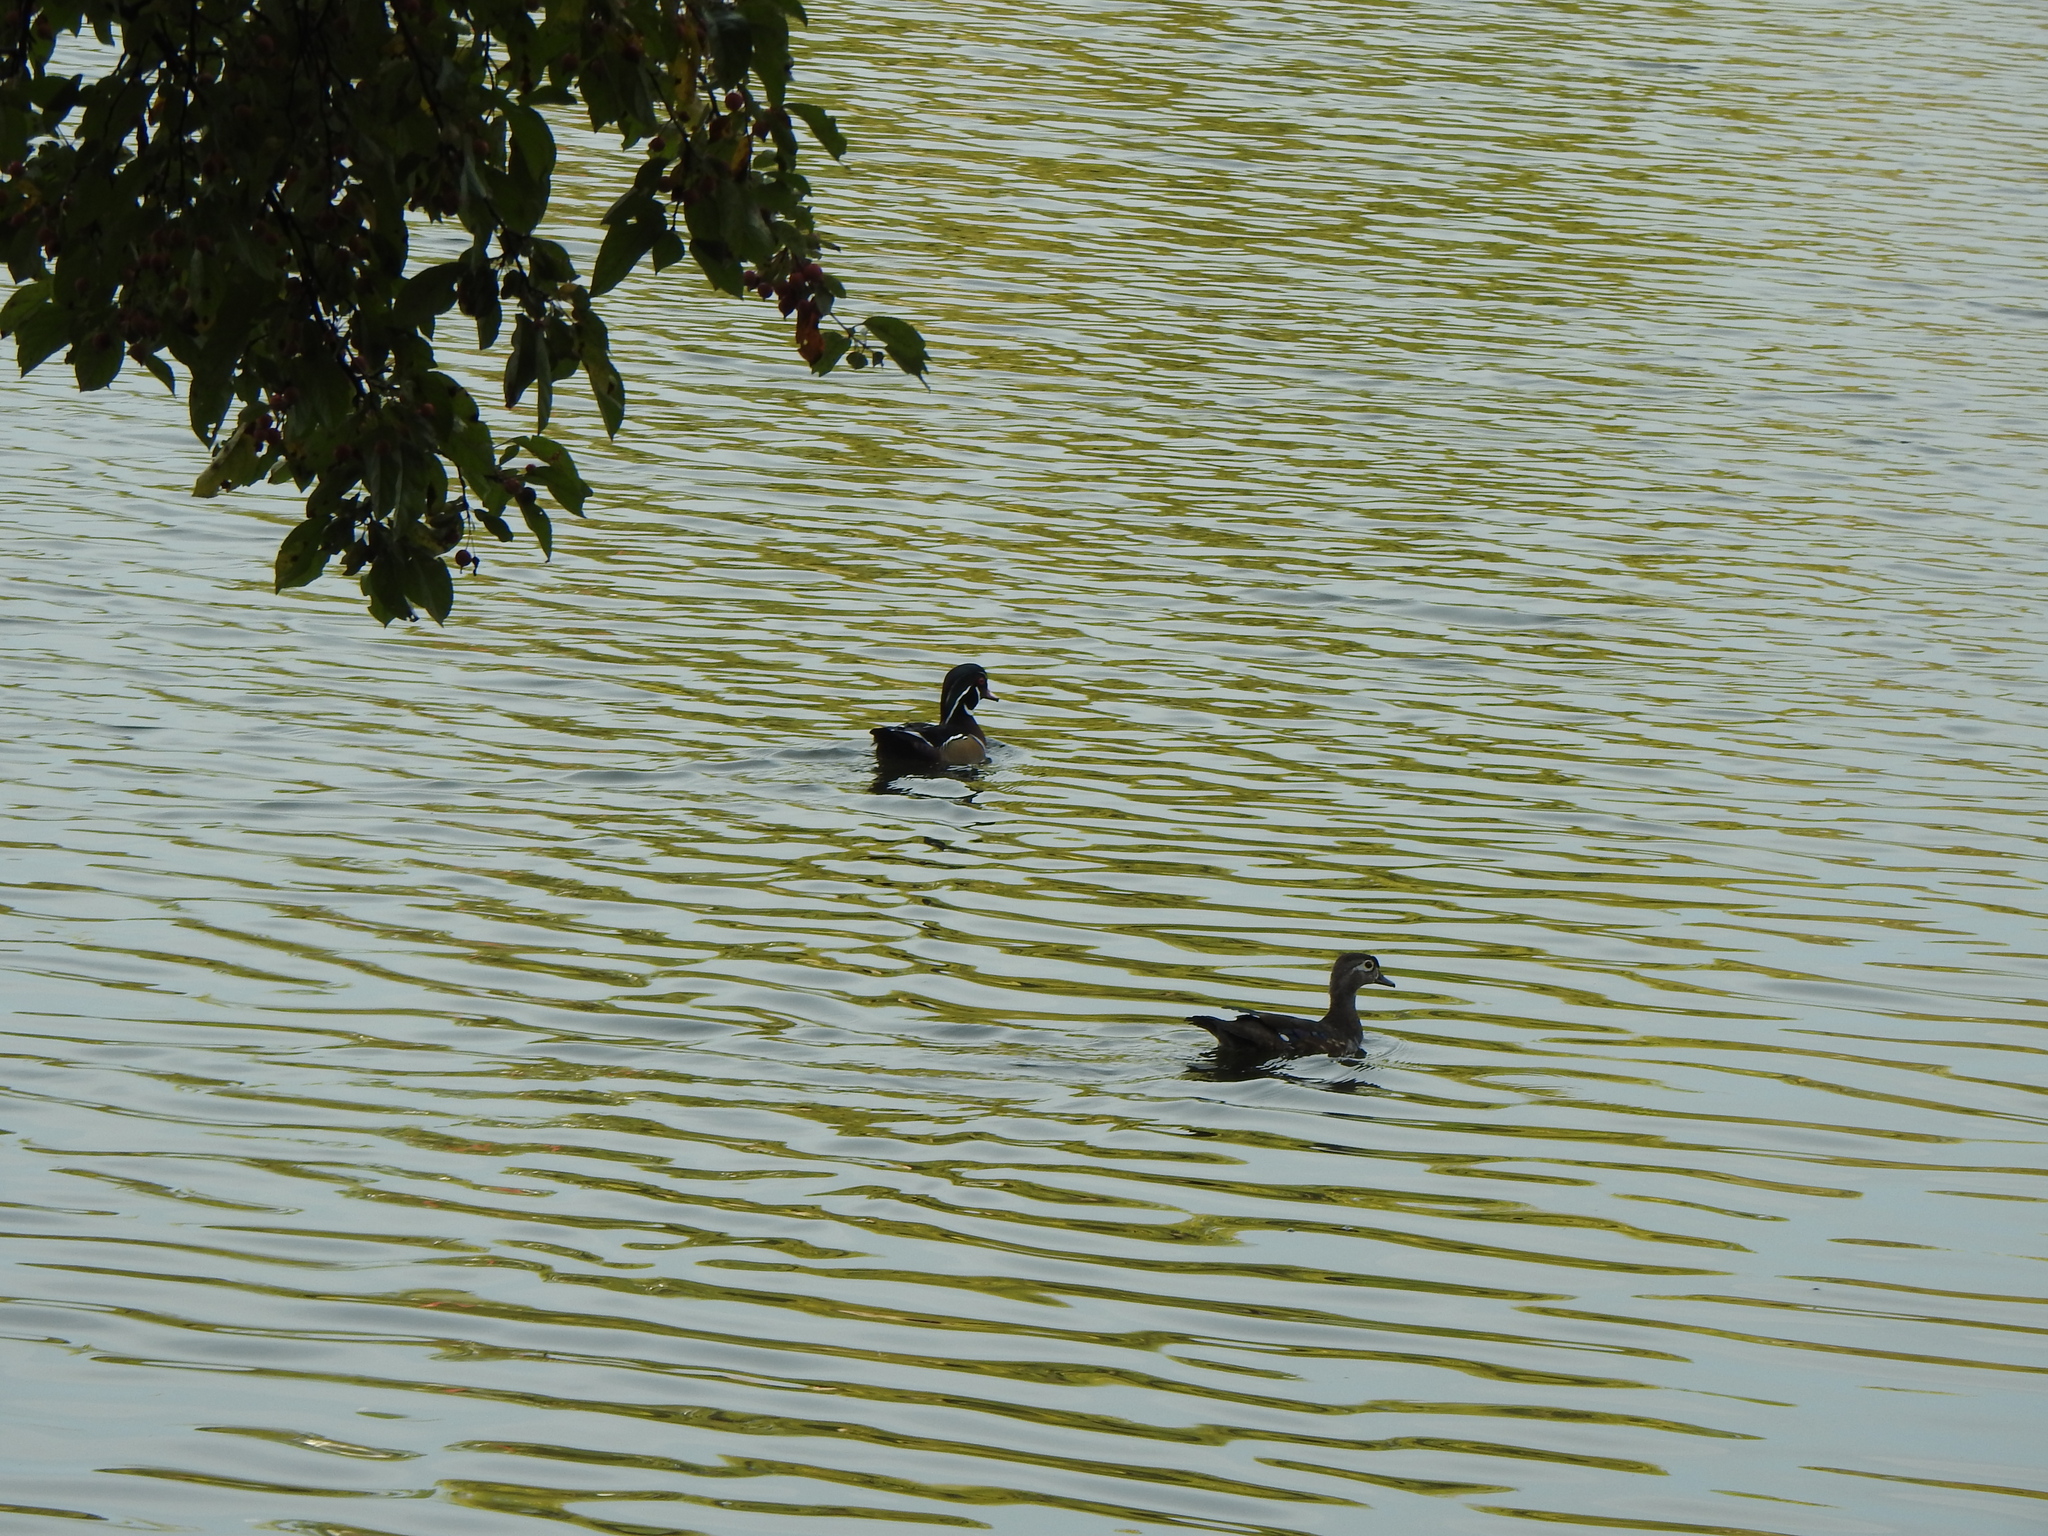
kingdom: Animalia
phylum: Chordata
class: Aves
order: Anseriformes
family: Anatidae
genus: Aix
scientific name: Aix sponsa
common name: Wood duck
